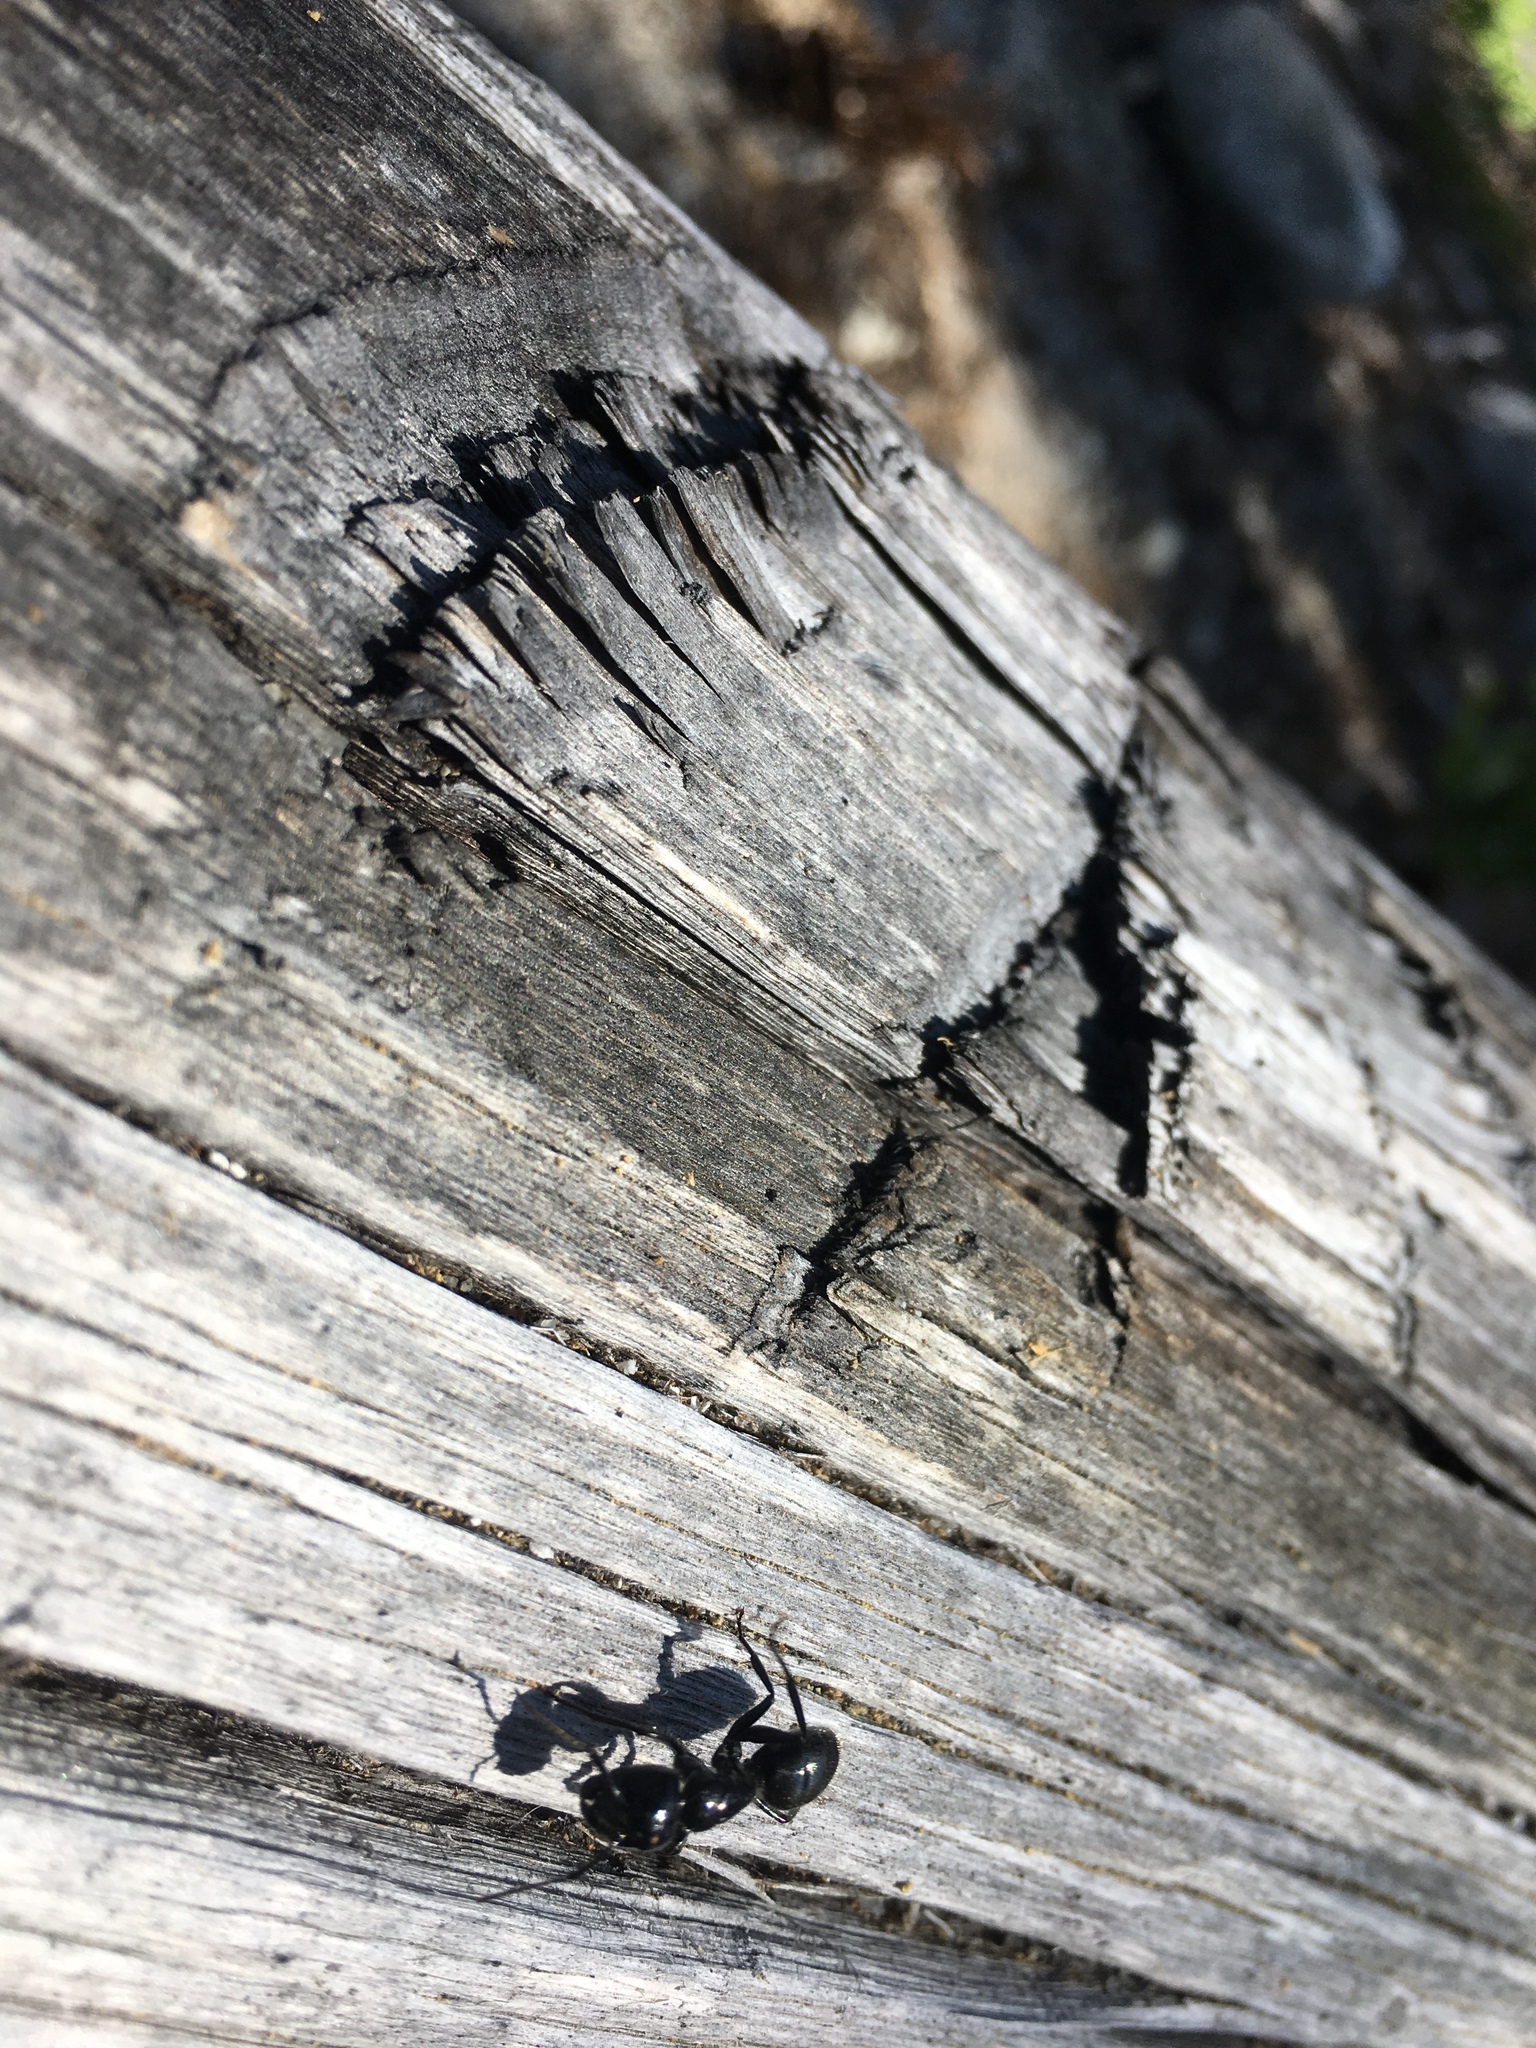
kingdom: Animalia
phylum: Arthropoda
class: Insecta
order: Hymenoptera
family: Formicidae
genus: Camponotus
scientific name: Camponotus
